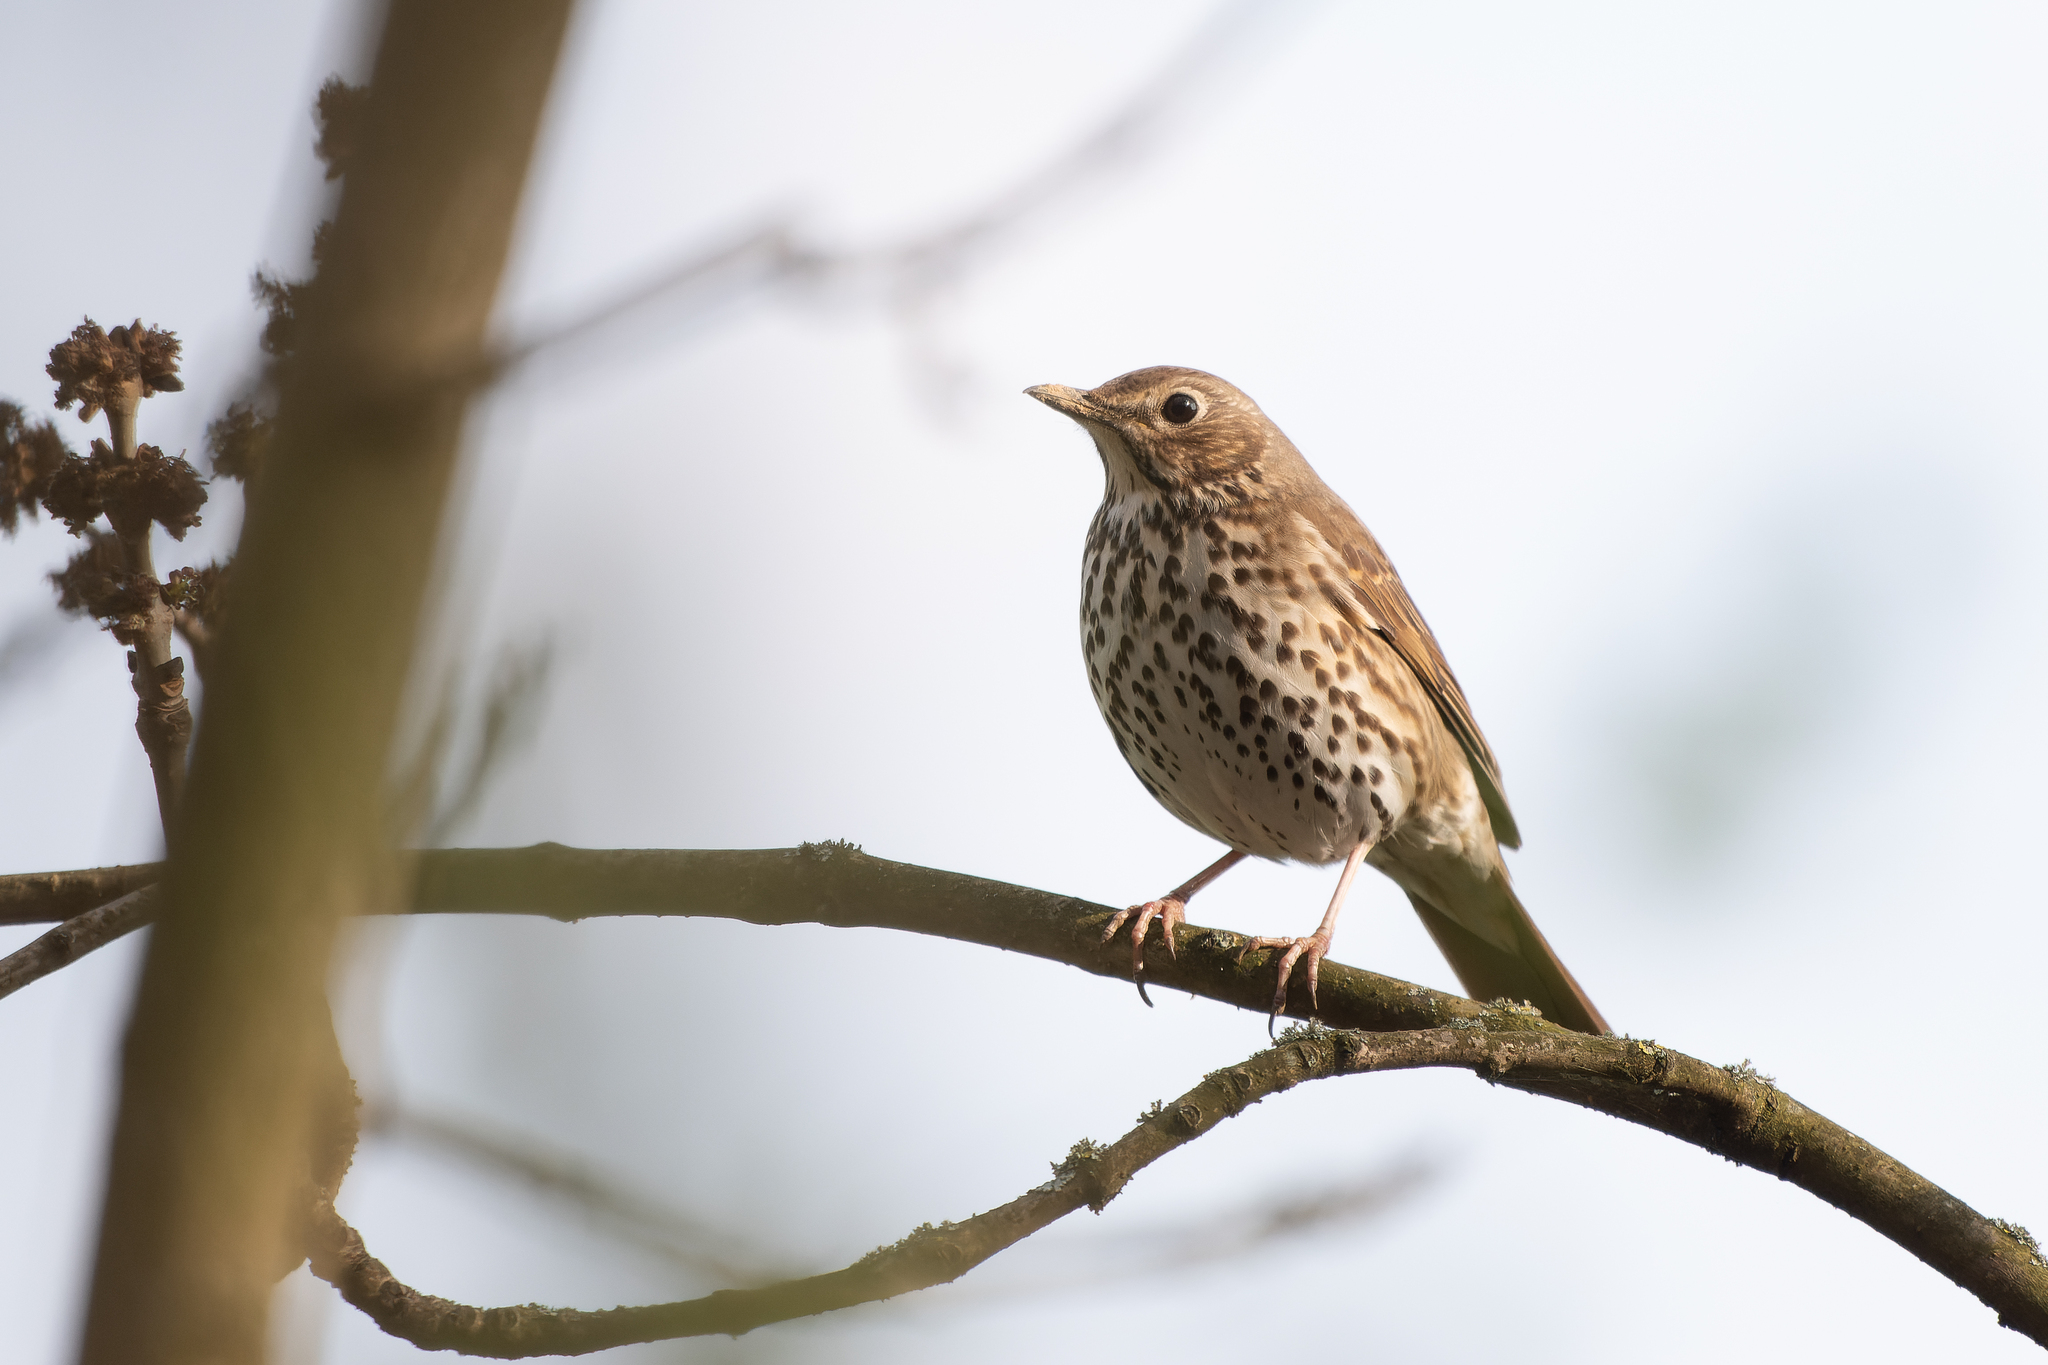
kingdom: Animalia
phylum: Chordata
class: Aves
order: Passeriformes
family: Turdidae
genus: Turdus
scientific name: Turdus philomelos
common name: Song thrush
